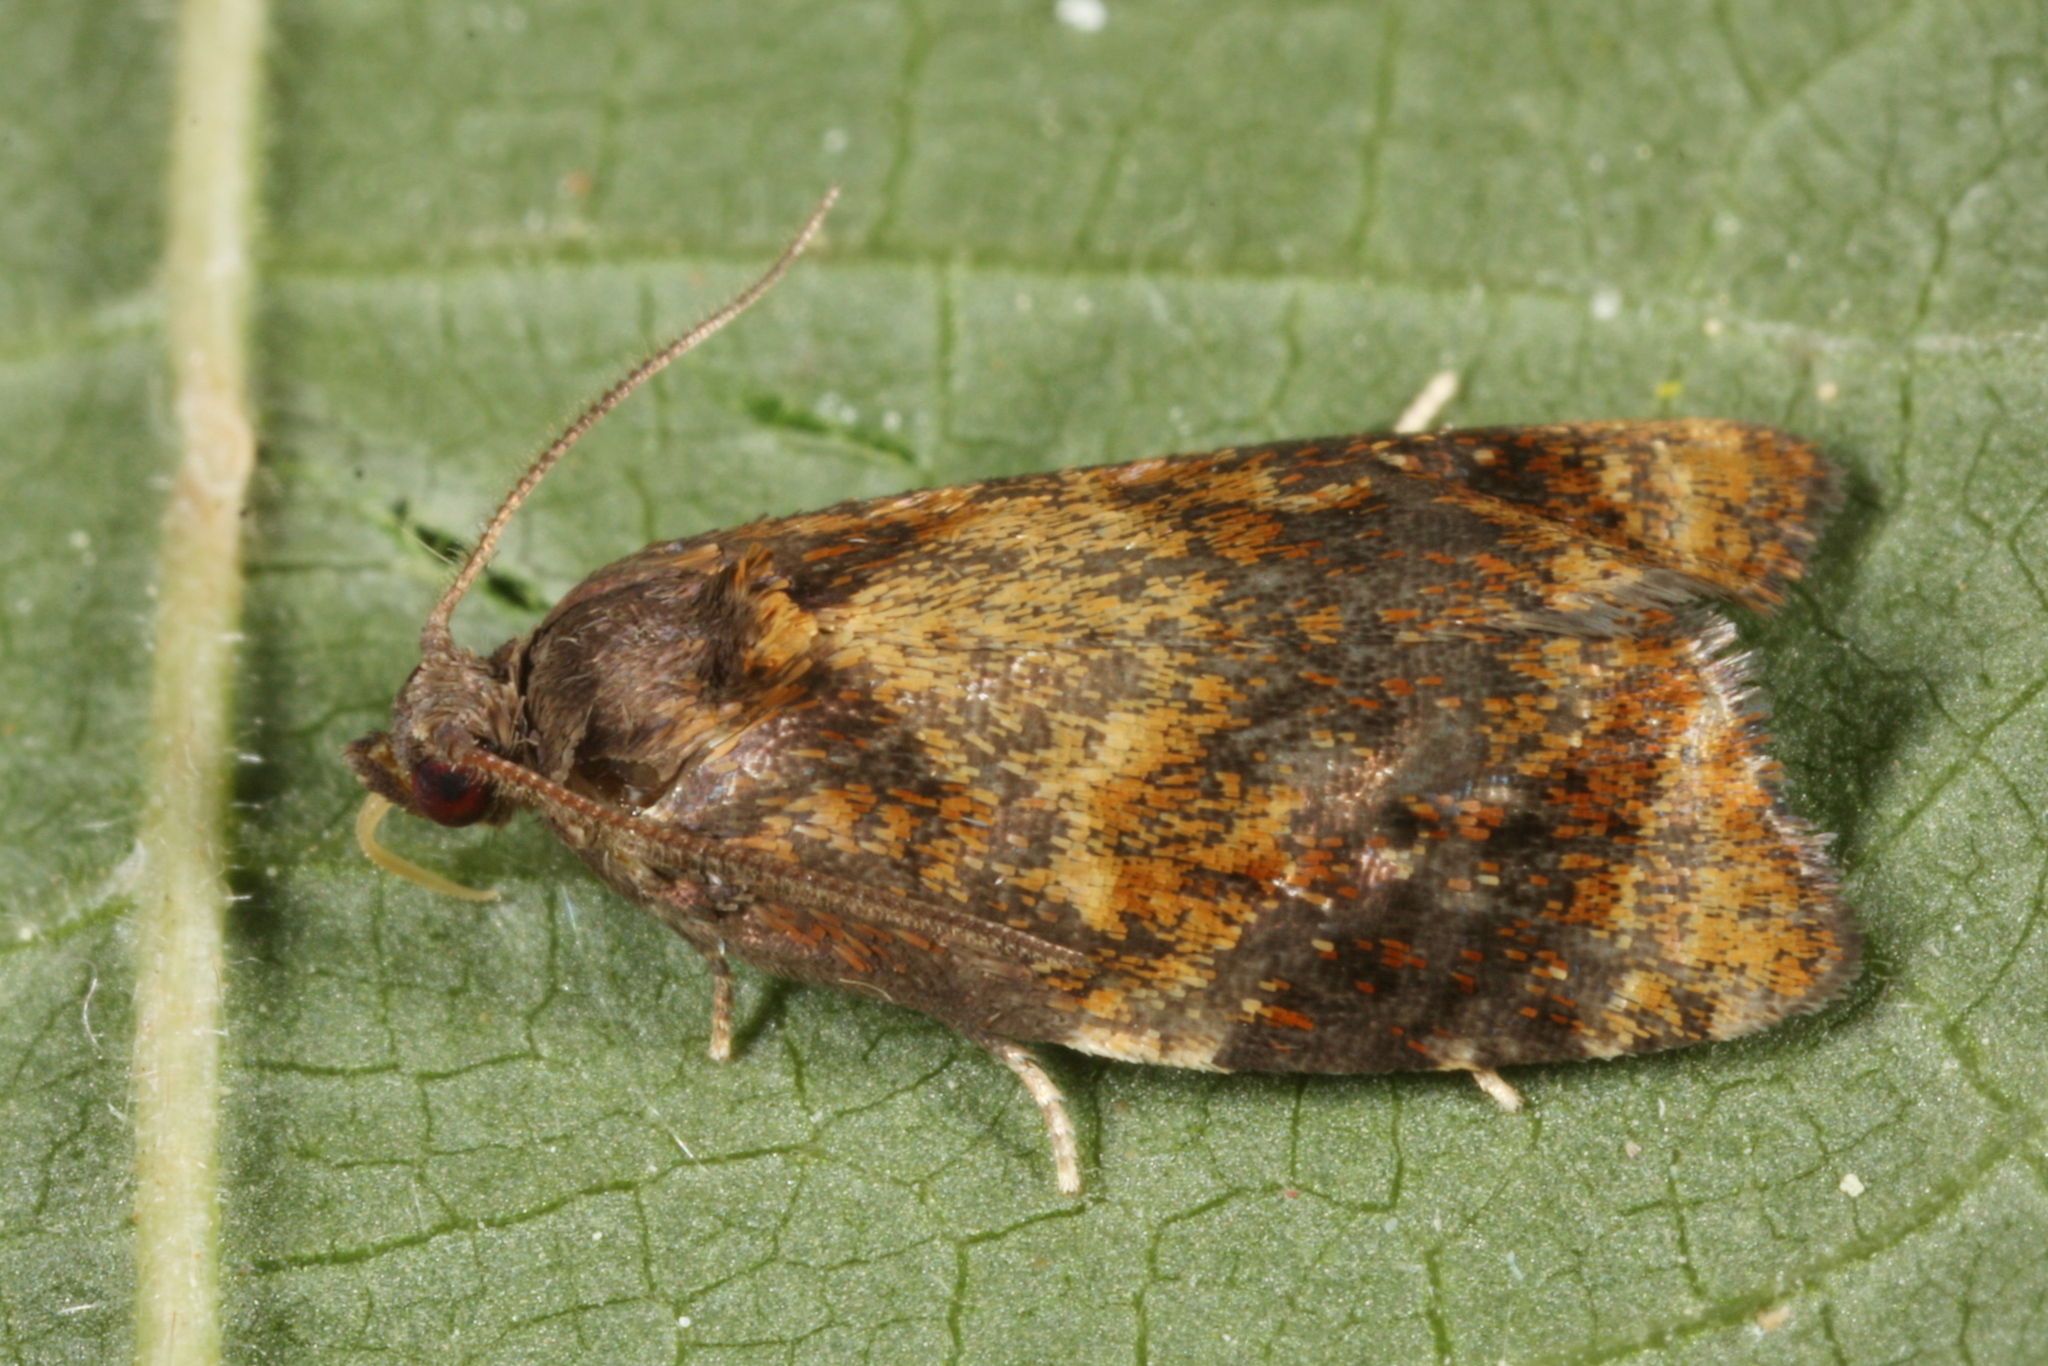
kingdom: Animalia
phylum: Arthropoda
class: Insecta
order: Lepidoptera
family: Tortricidae
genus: Ditula
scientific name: Ditula angustiorana
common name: Red-barred tortrix
